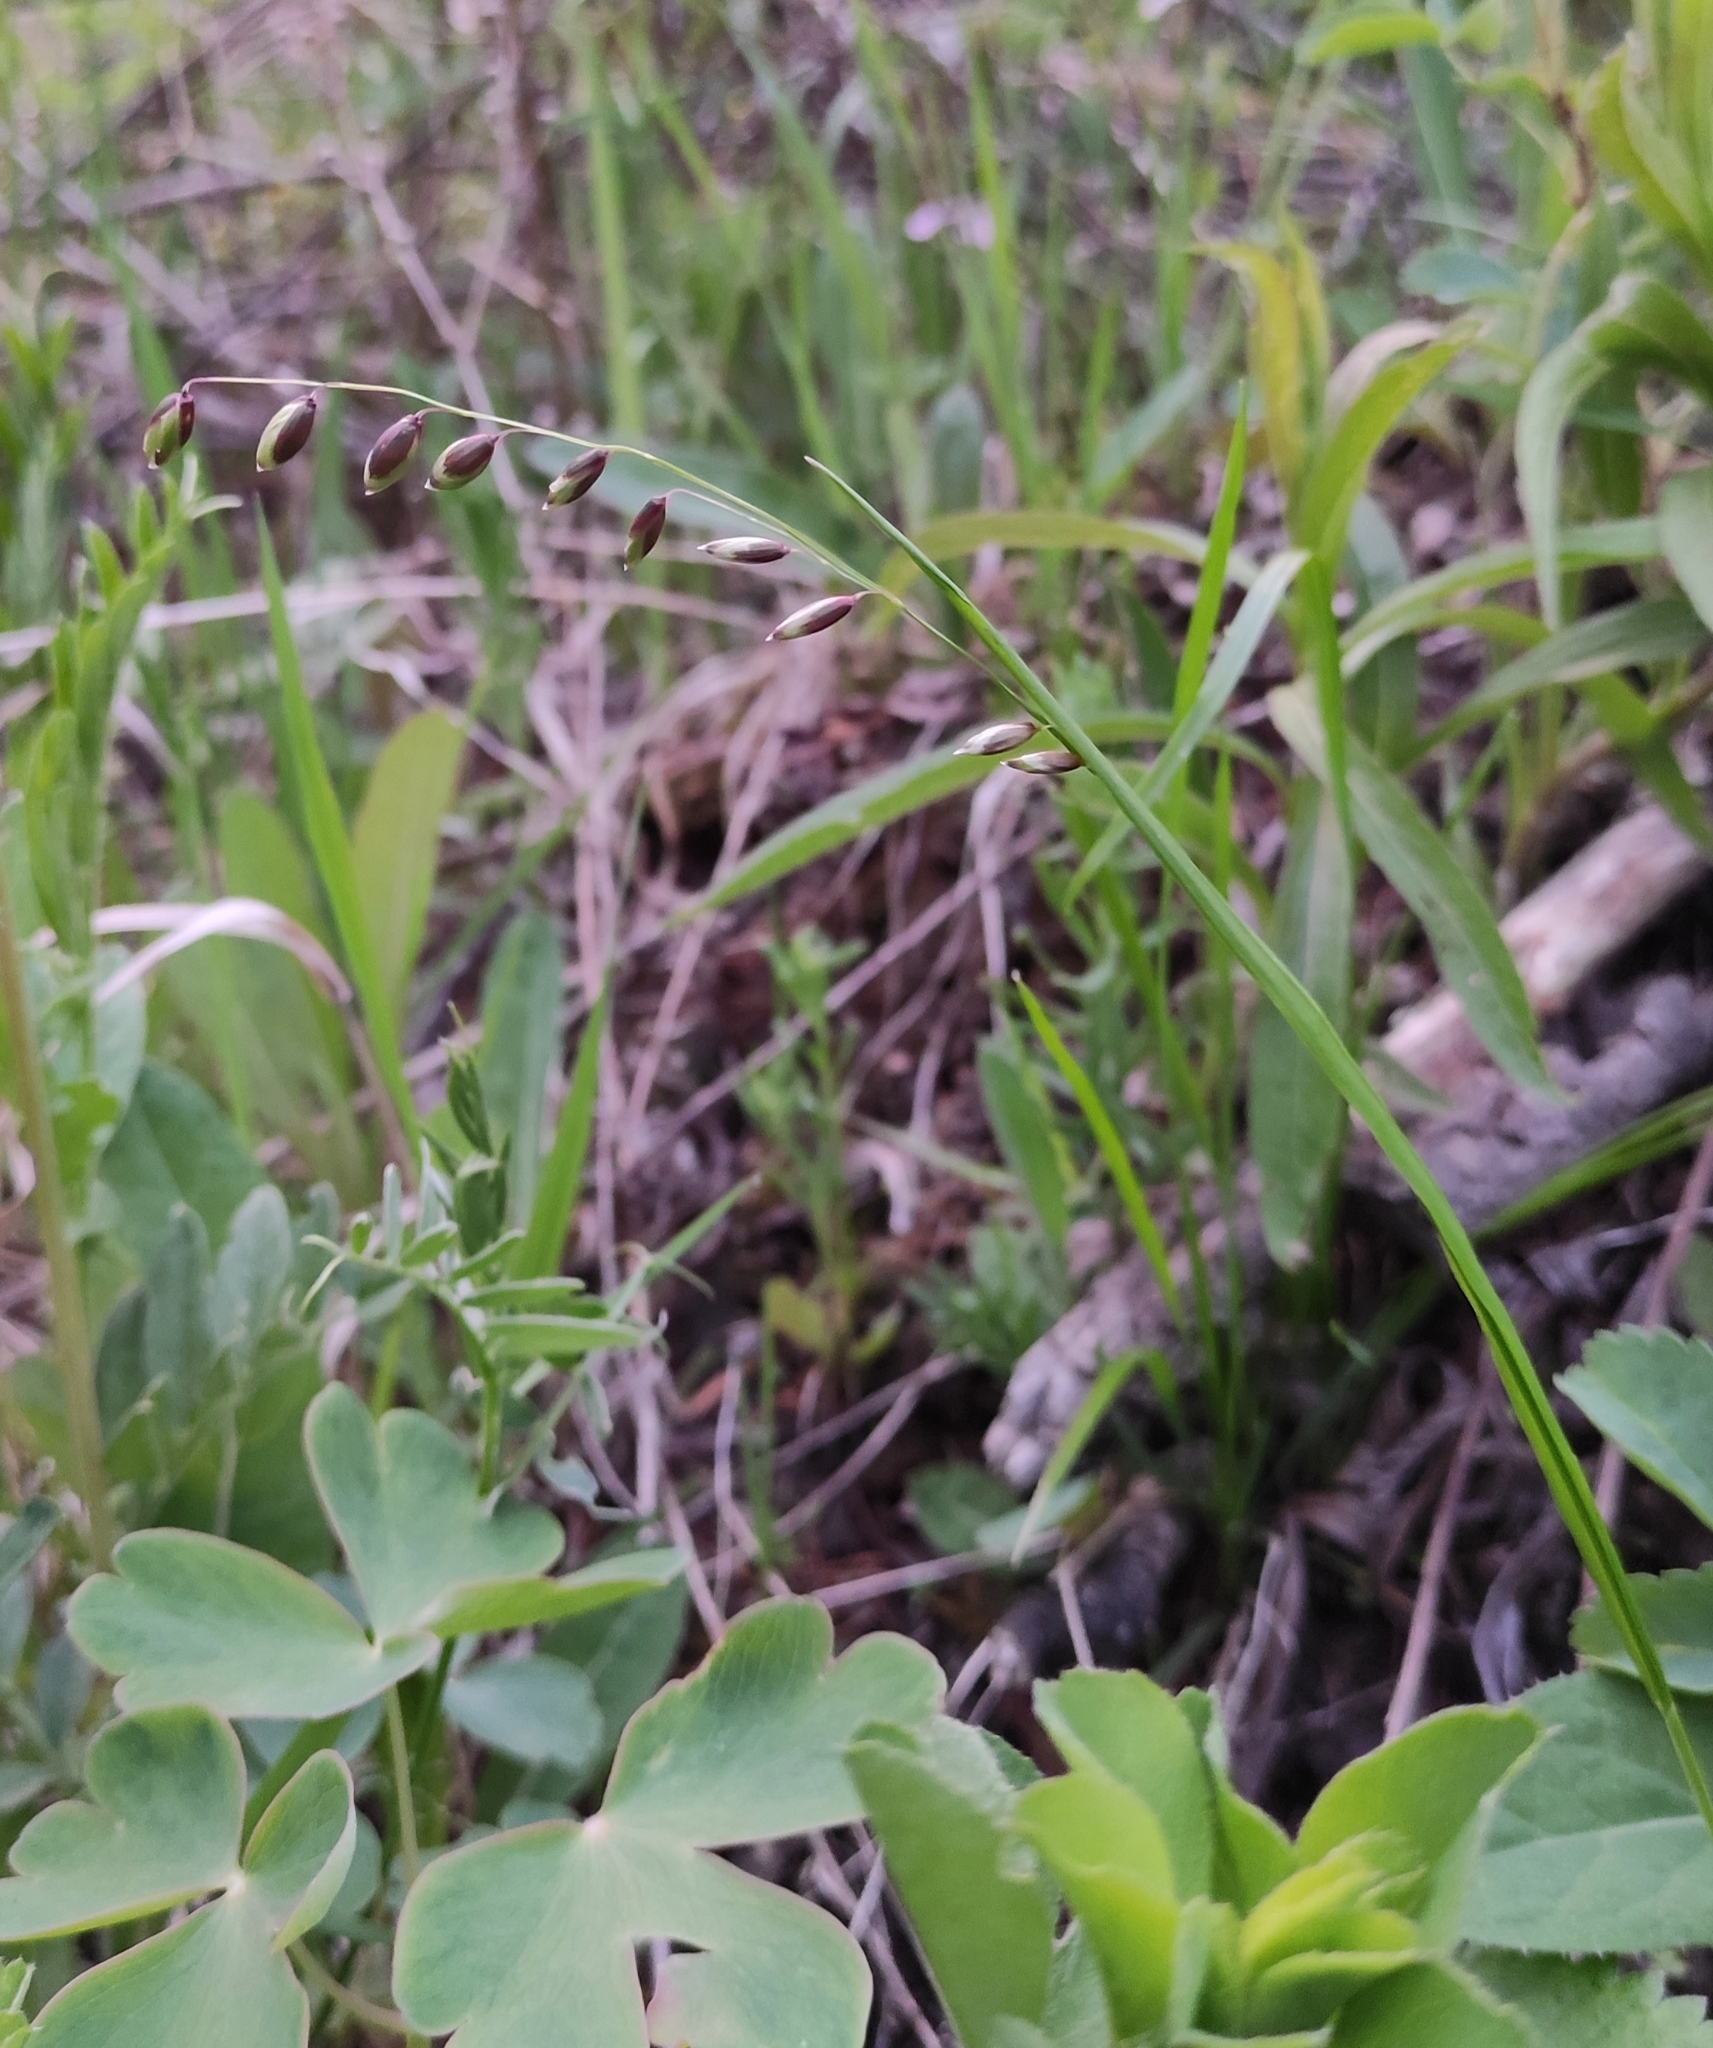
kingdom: Plantae
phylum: Tracheophyta
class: Liliopsida
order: Poales
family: Poaceae
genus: Melica
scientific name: Melica nutans
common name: Mountain melick
